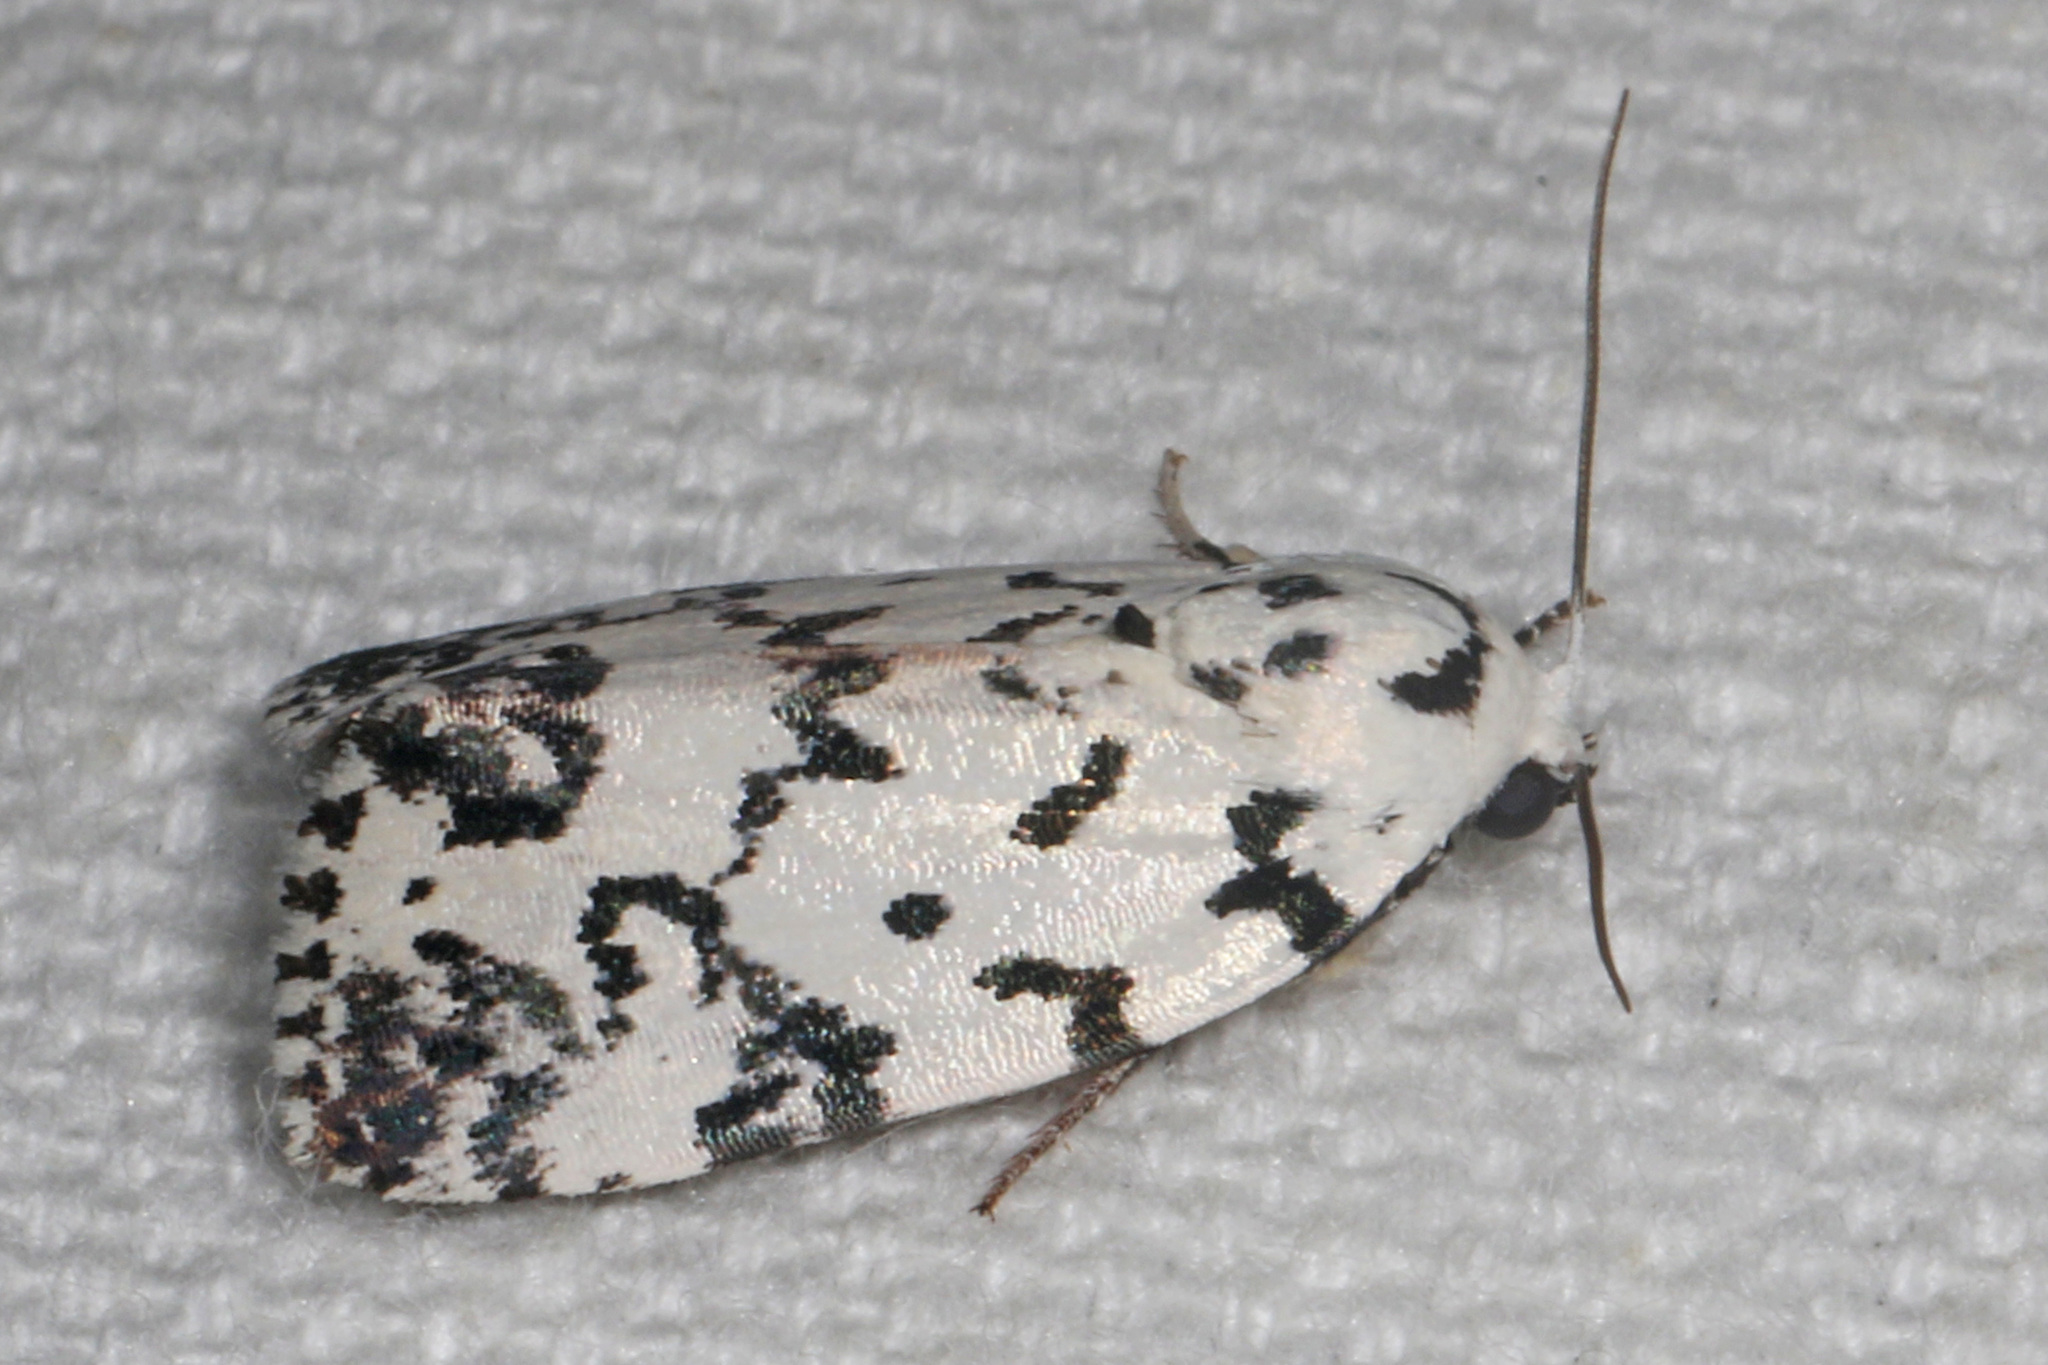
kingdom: Animalia
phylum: Arthropoda
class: Insecta
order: Lepidoptera
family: Noctuidae
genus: Polygrammate
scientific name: Polygrammate hebraeicum
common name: Hebrew moth
